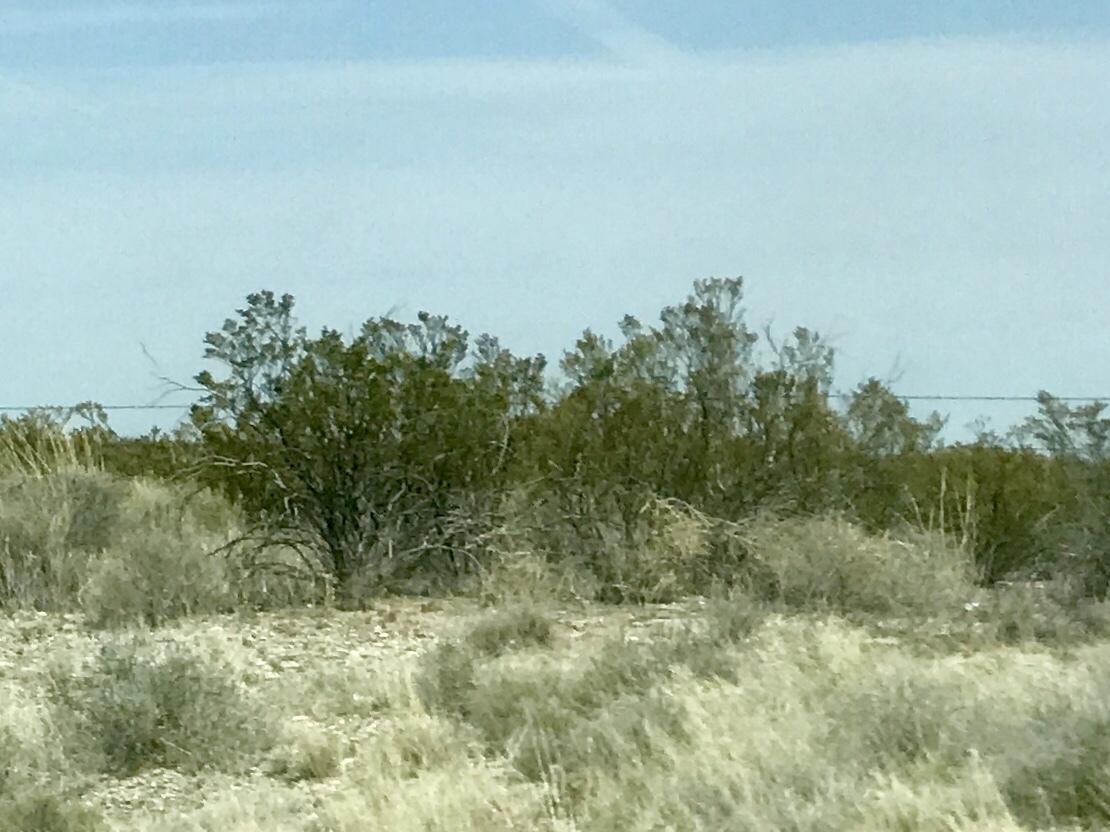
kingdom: Plantae
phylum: Tracheophyta
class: Magnoliopsida
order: Zygophyllales
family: Zygophyllaceae
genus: Larrea
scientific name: Larrea tridentata
